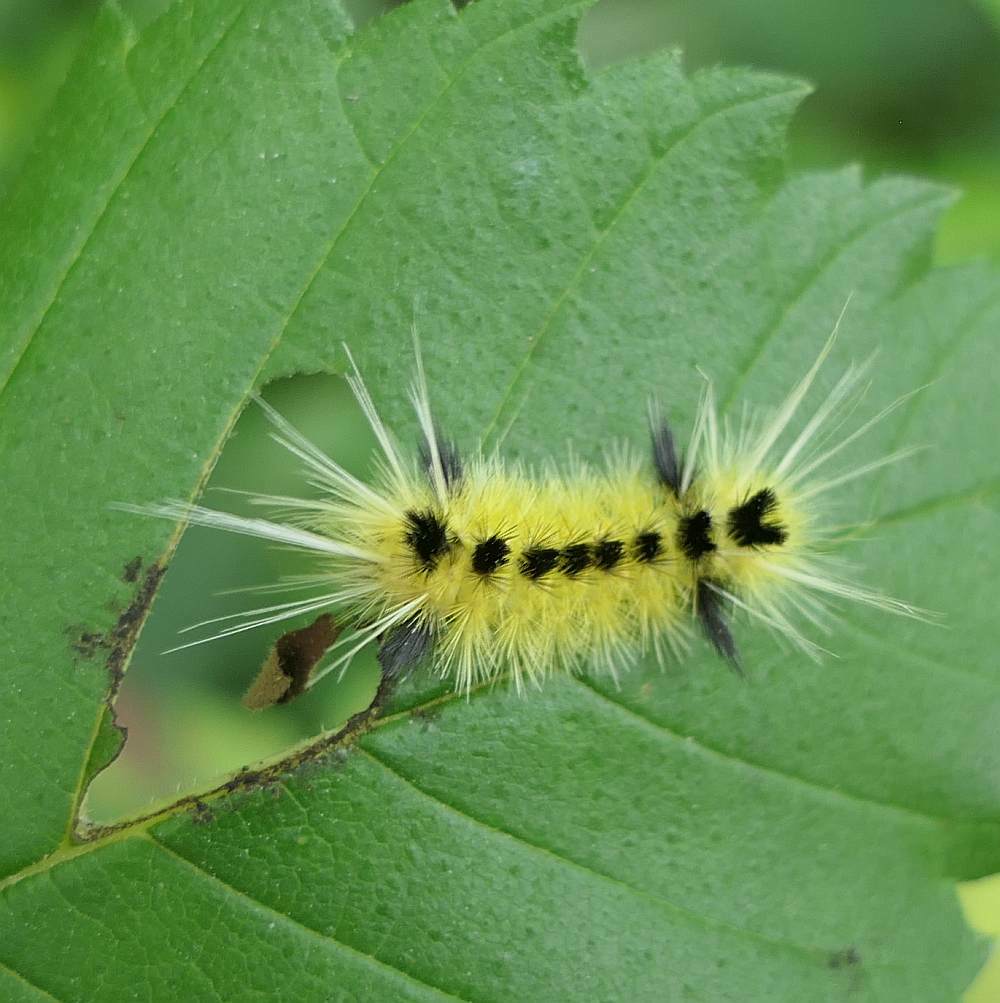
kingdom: Animalia
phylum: Arthropoda
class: Insecta
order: Lepidoptera
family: Erebidae
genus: Lophocampa
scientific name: Lophocampa maculata
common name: Spotted tussock moth
